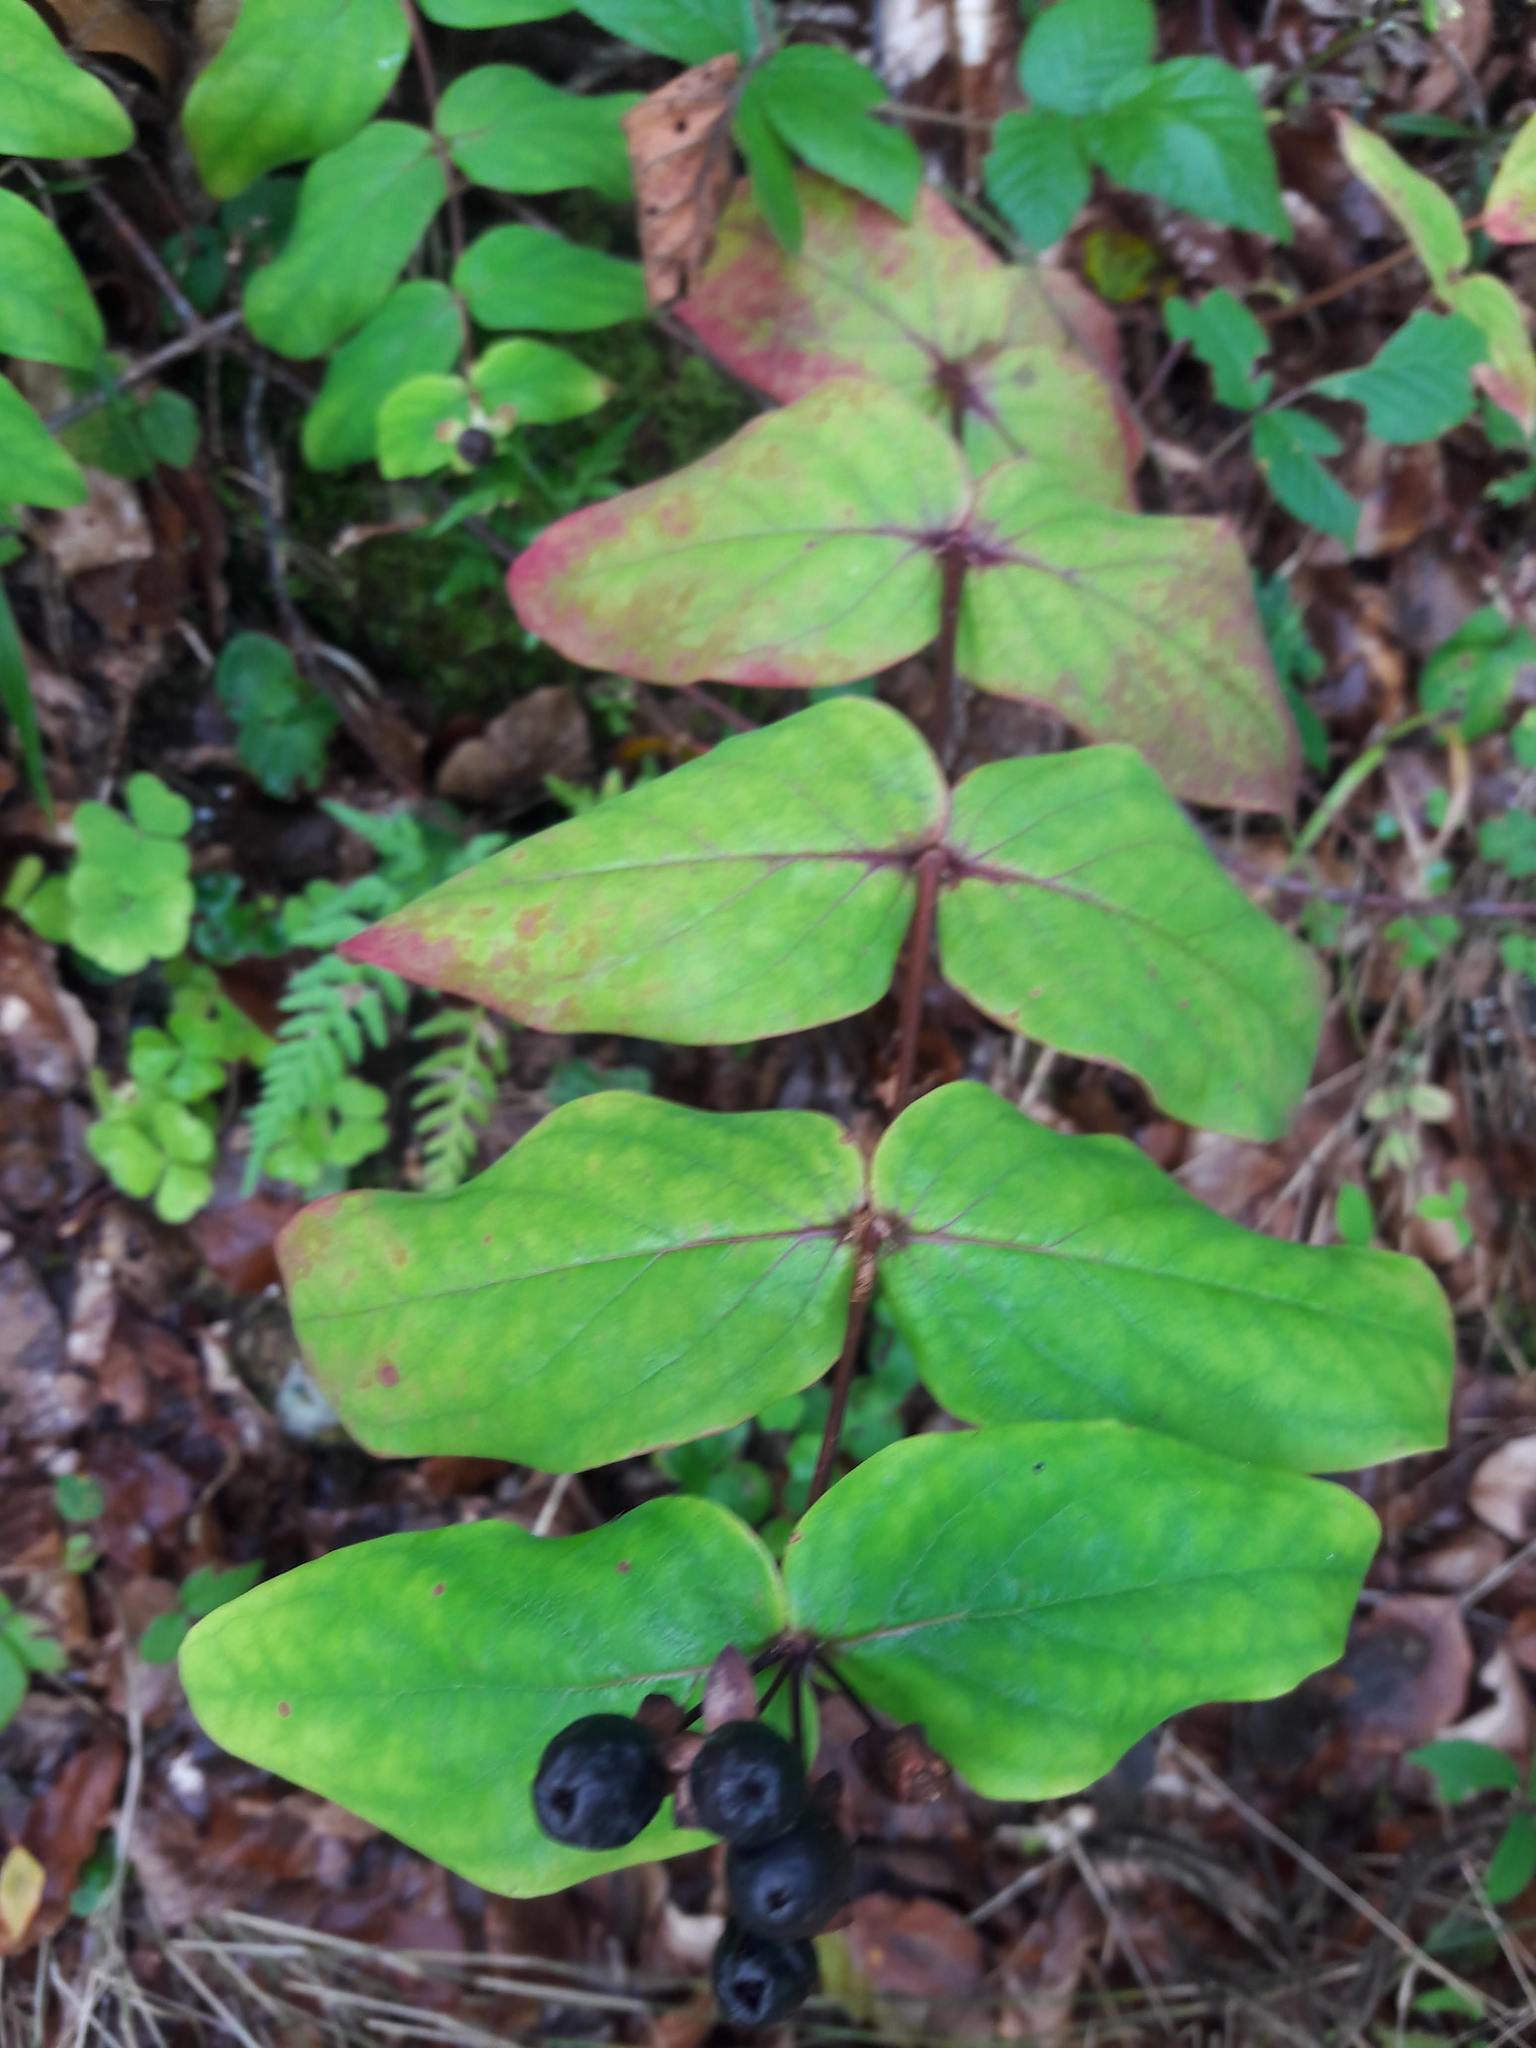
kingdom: Plantae
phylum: Tracheophyta
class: Magnoliopsida
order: Malpighiales
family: Hypericaceae
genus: Hypericum
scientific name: Hypericum androsaemum
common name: Sweet-amber
